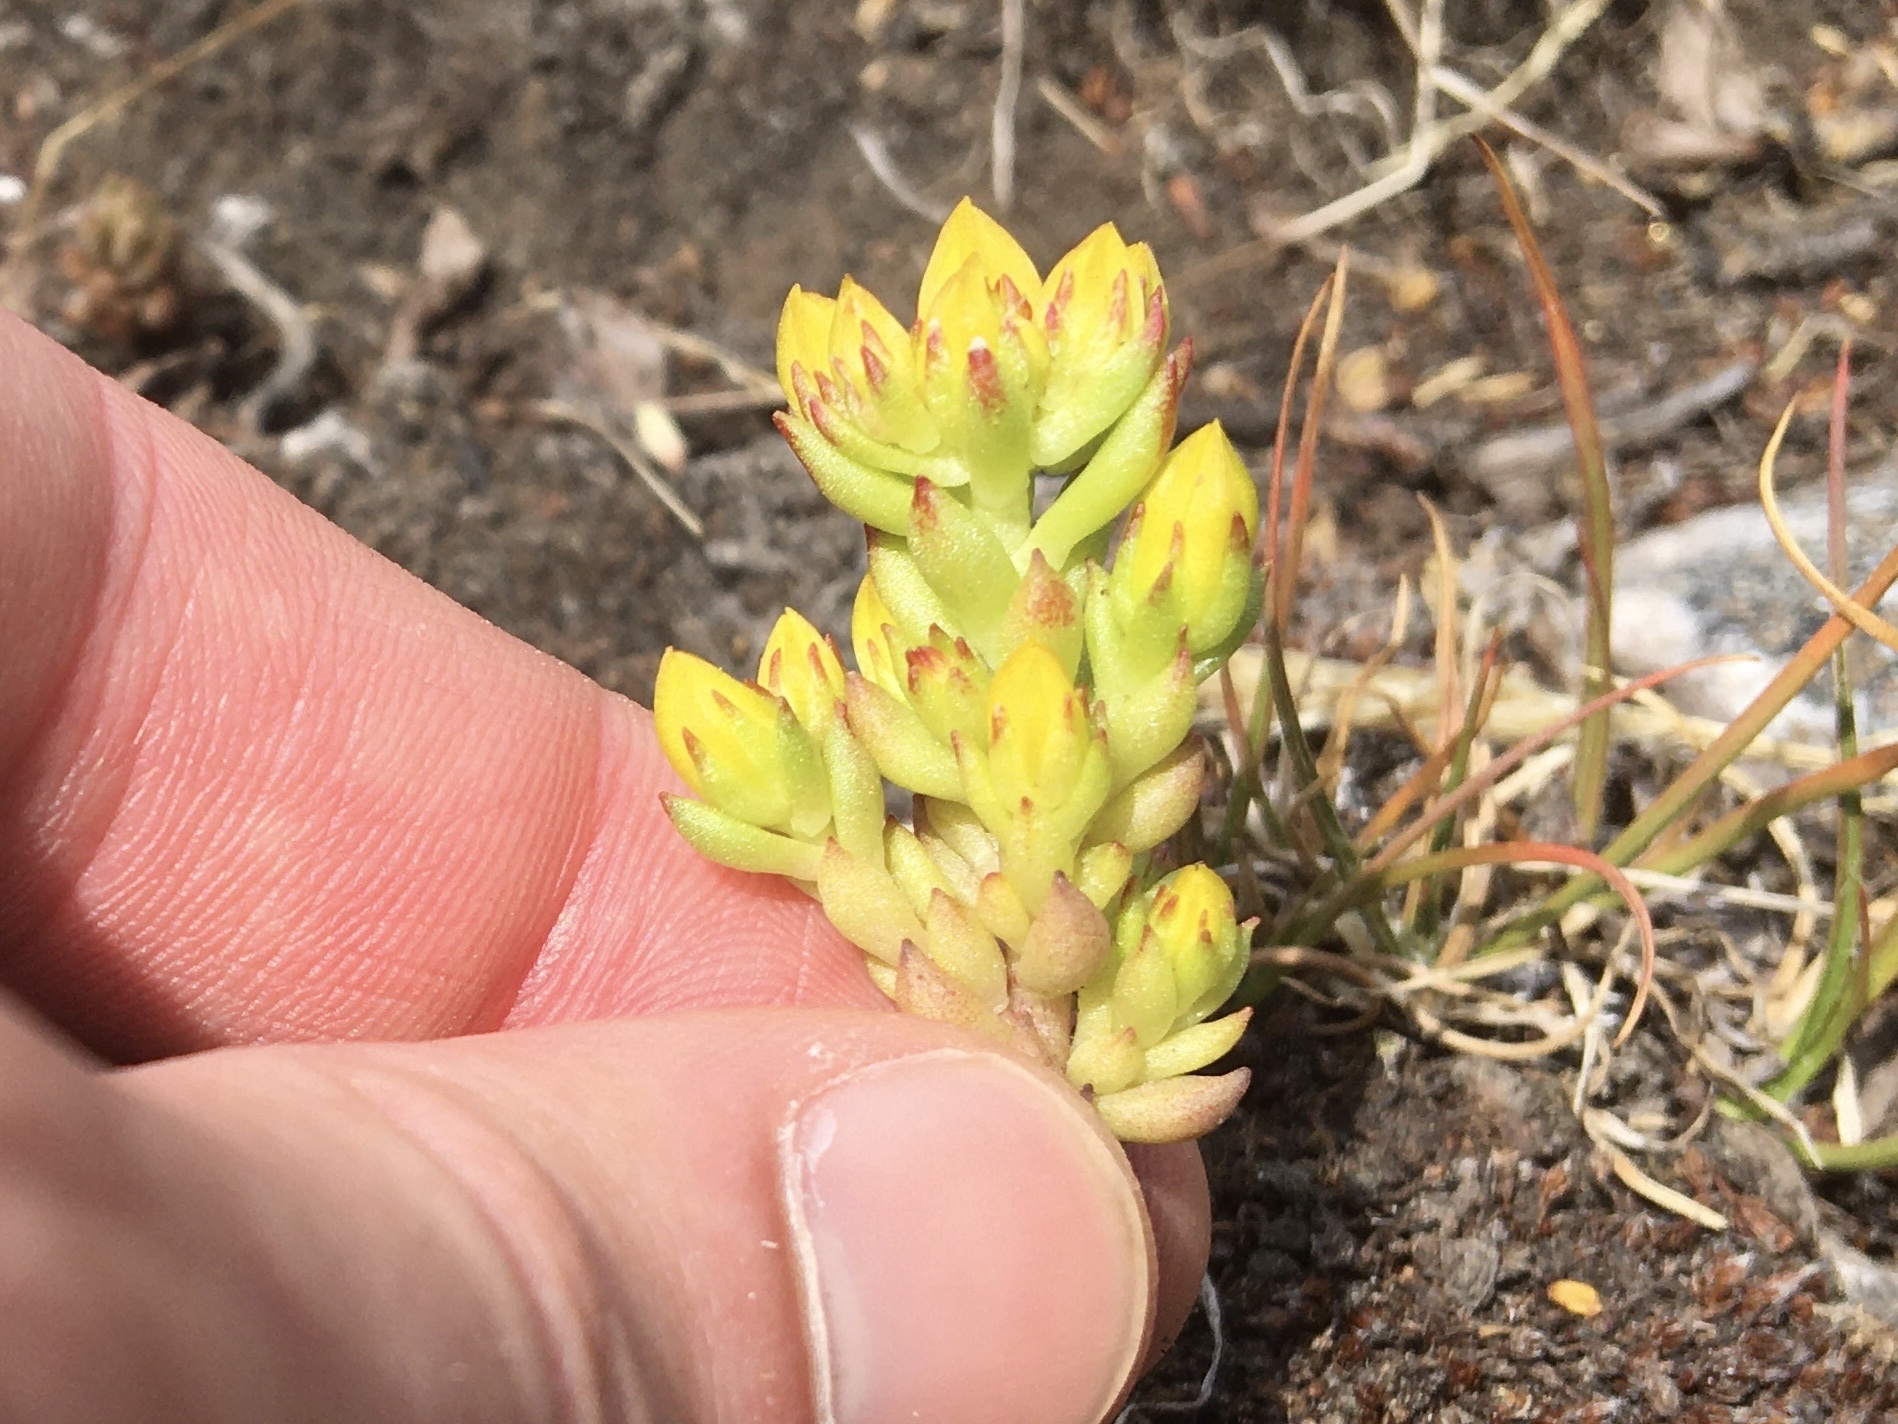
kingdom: Plantae
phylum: Tracheophyta
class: Magnoliopsida
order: Saxifragales
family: Crassulaceae
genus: Sedum
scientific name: Sedum lanceolatum
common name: Common stonecrop
